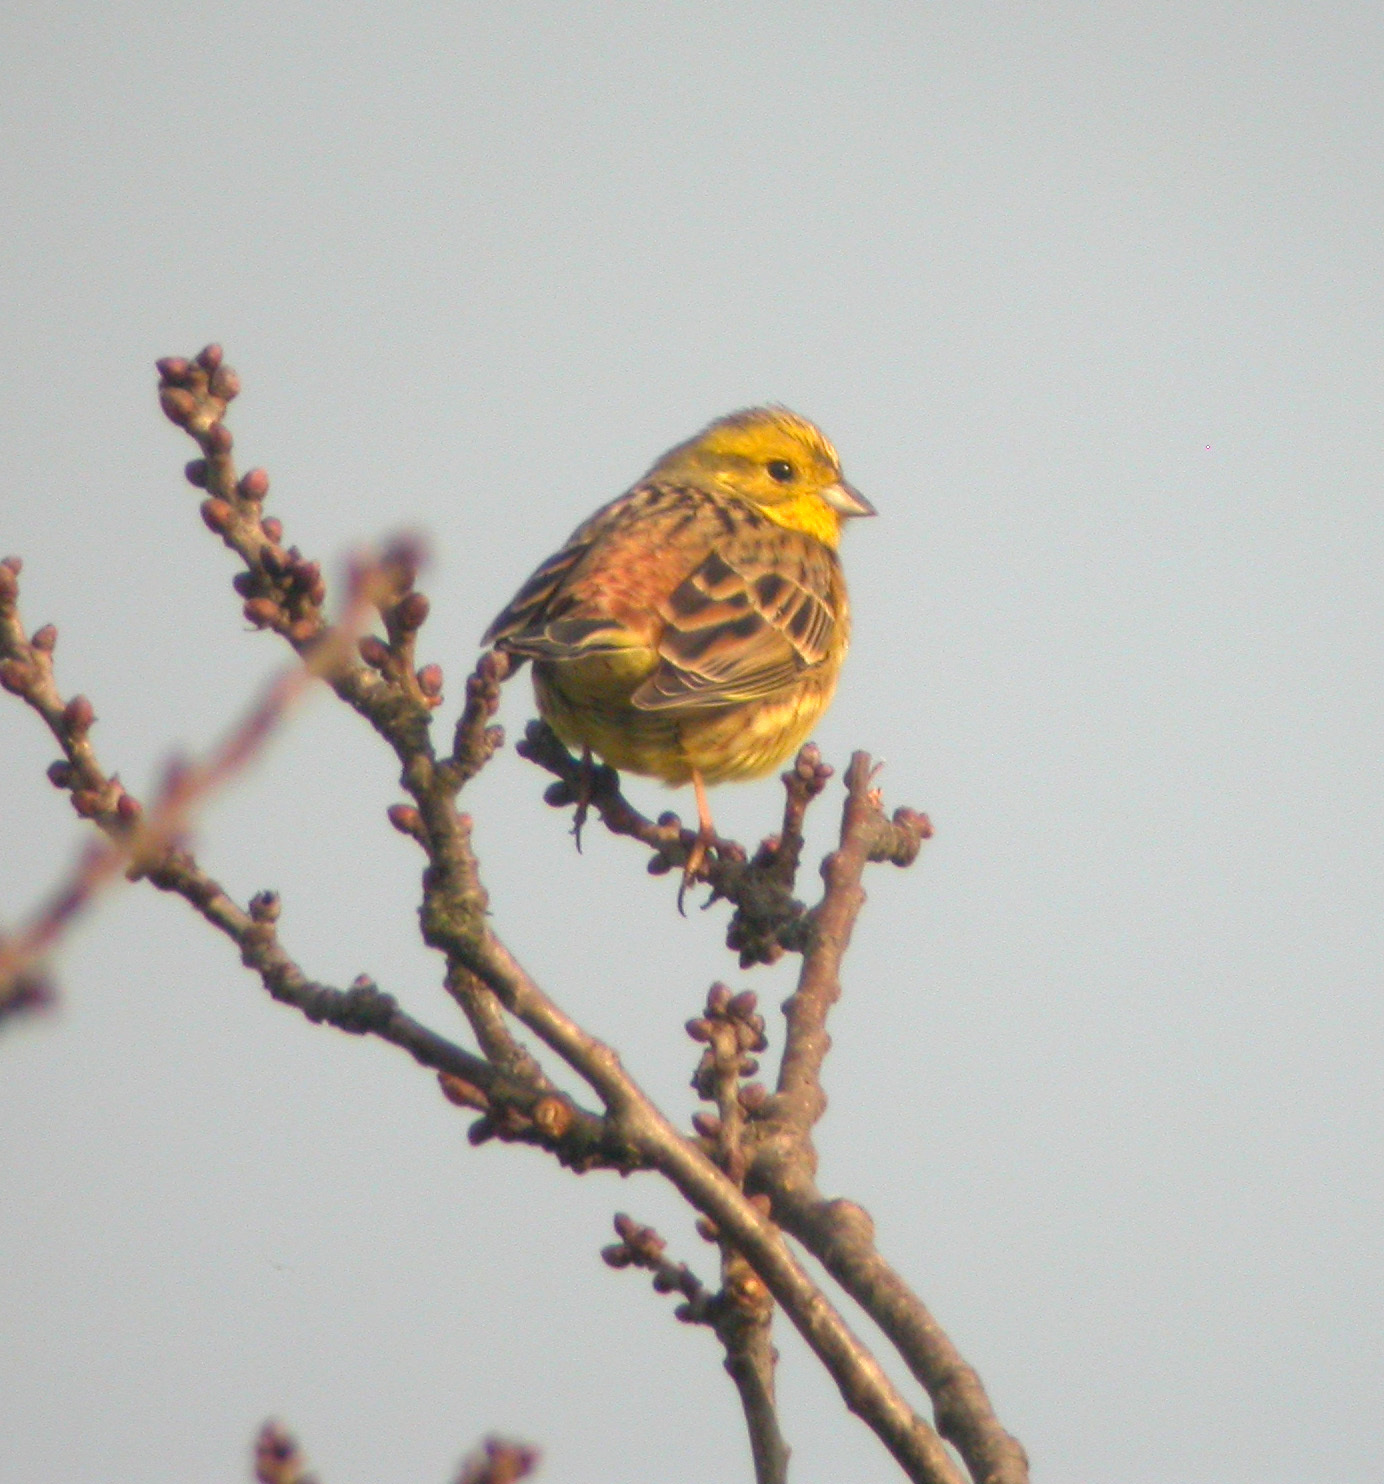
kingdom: Animalia
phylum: Chordata
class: Aves
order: Passeriformes
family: Emberizidae
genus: Emberiza
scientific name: Emberiza citrinella
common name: Yellowhammer
